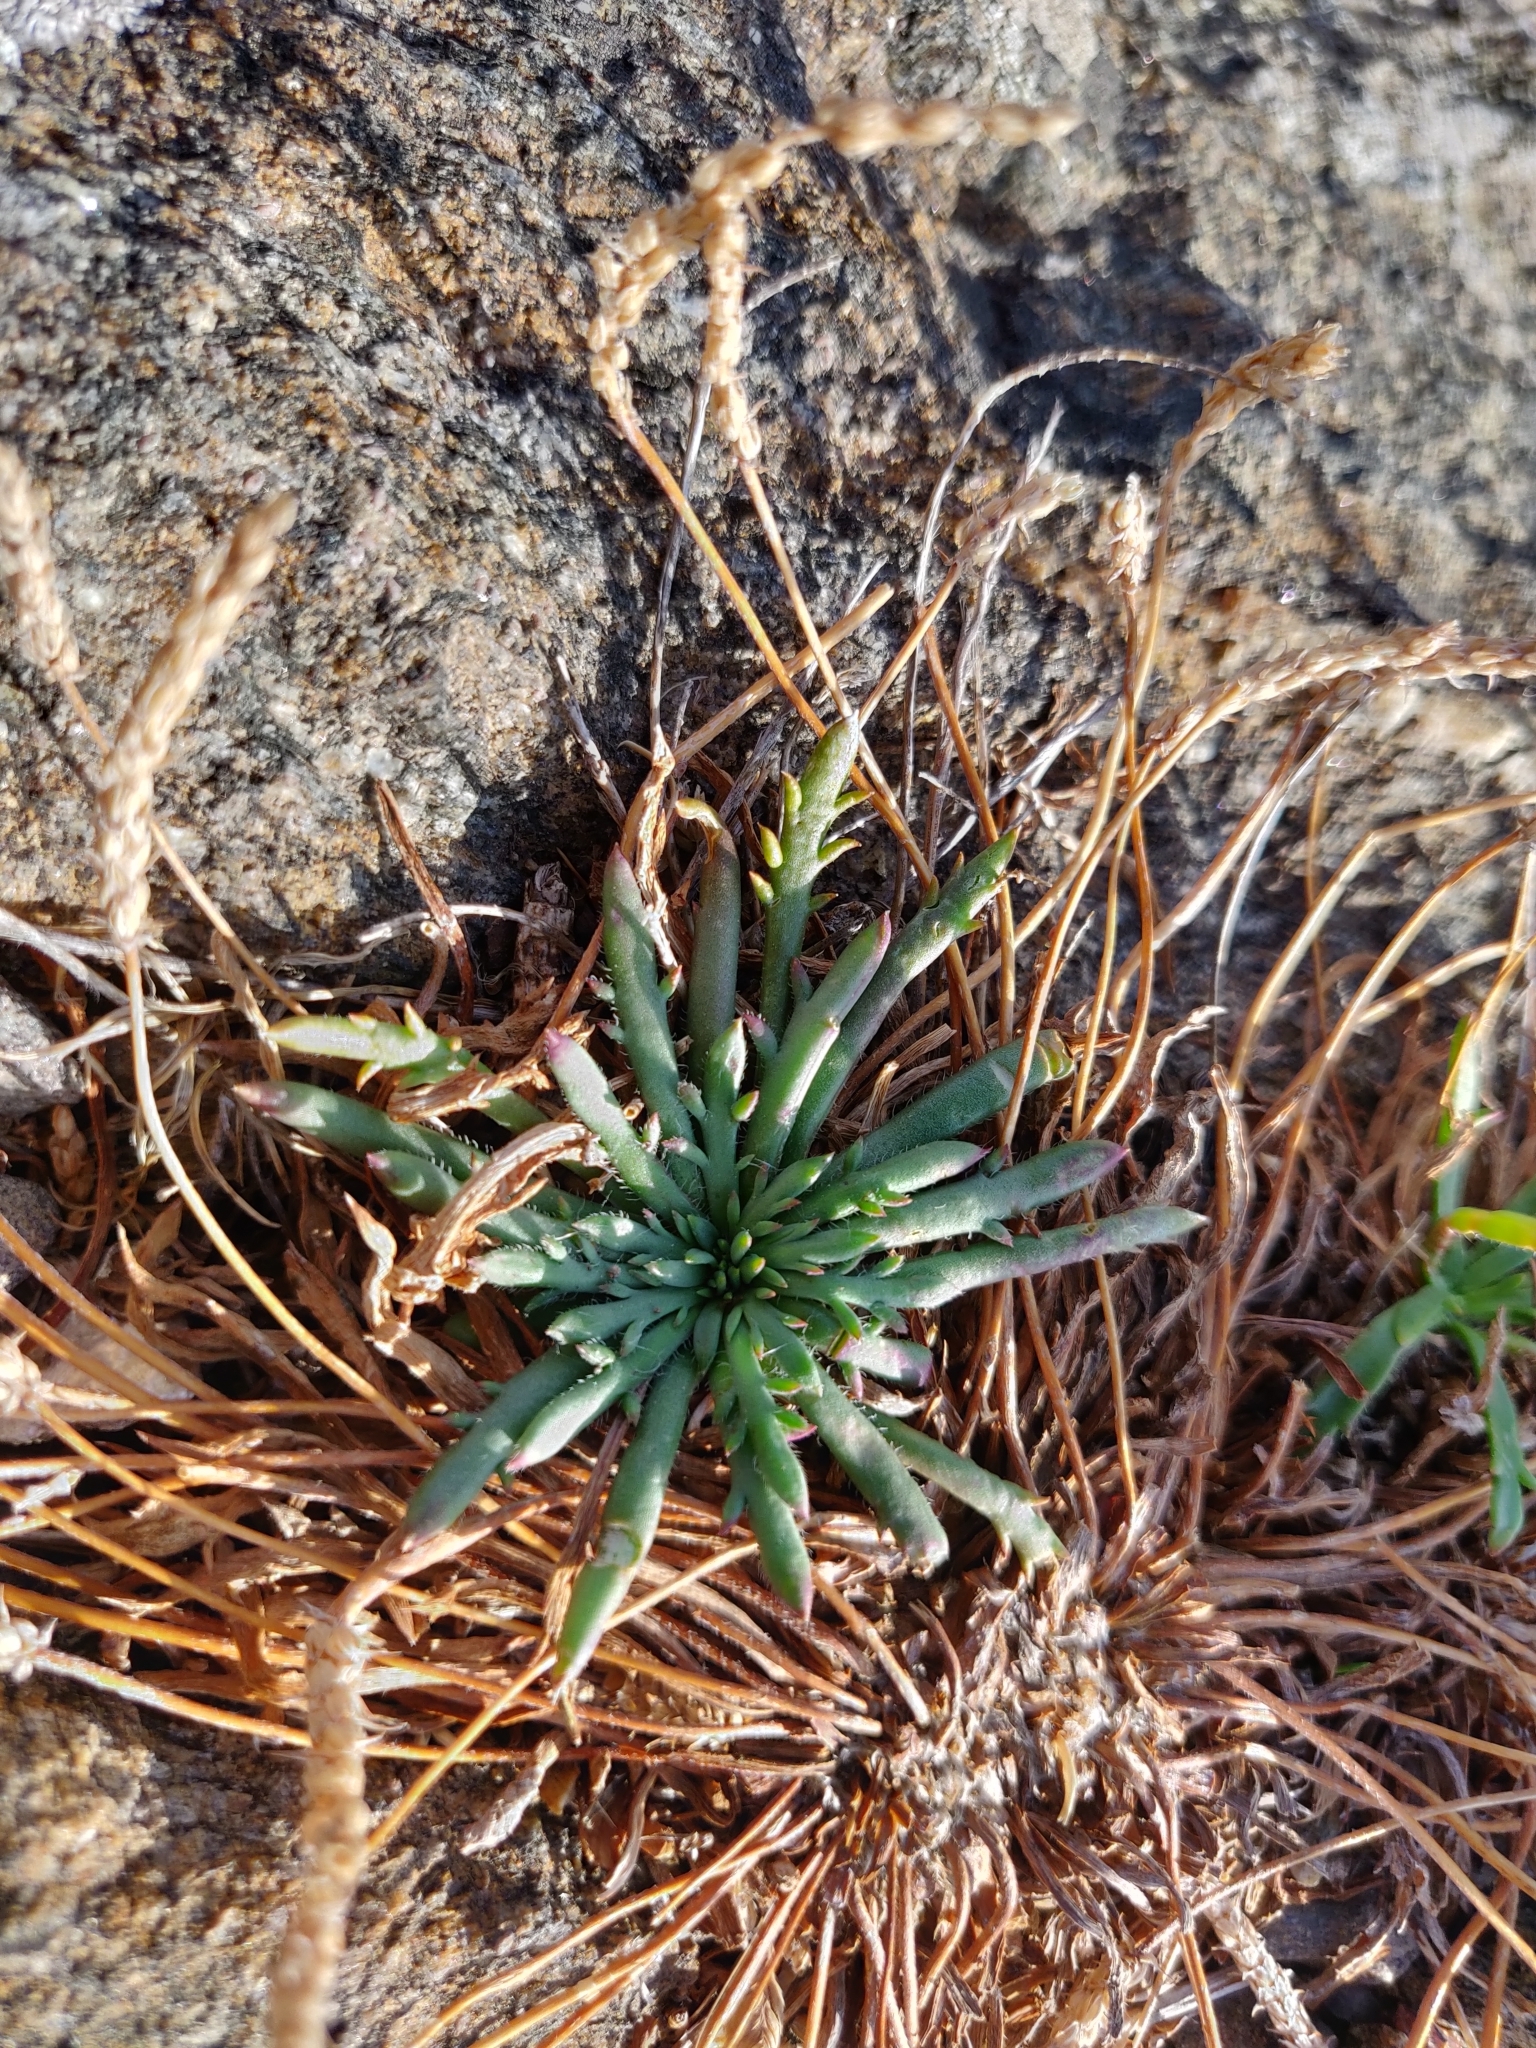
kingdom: Plantae
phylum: Tracheophyta
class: Magnoliopsida
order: Lamiales
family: Plantaginaceae
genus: Plantago
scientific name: Plantago coronopus
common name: Buck's-horn plantain
